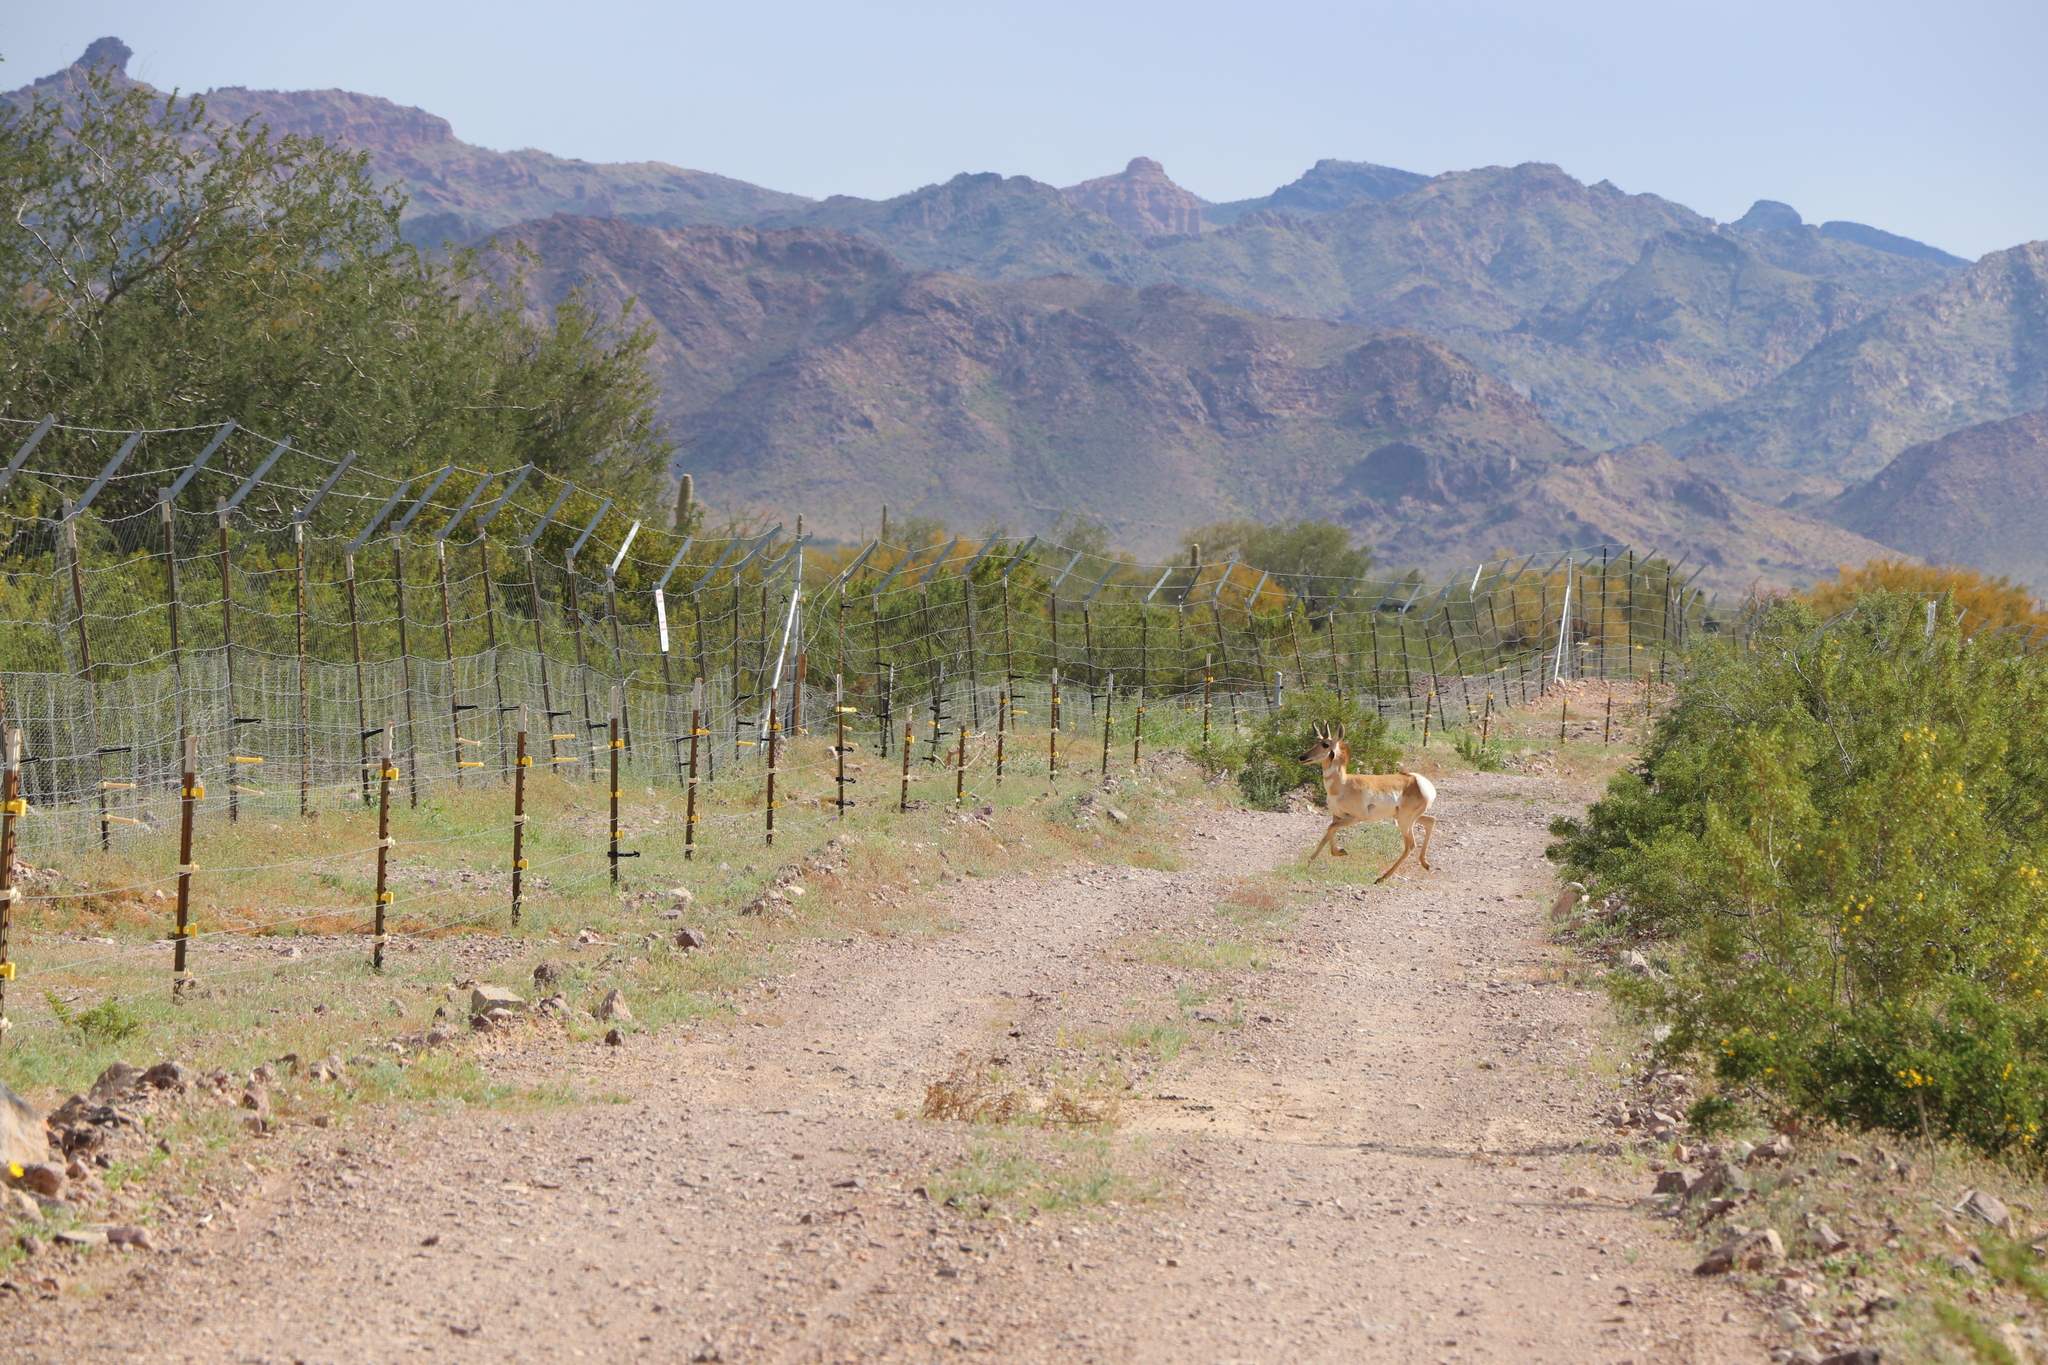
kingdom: Animalia
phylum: Chordata
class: Mammalia
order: Artiodactyla
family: Antilocapridae
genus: Antilocapra
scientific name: Antilocapra americana
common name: Pronghorn
